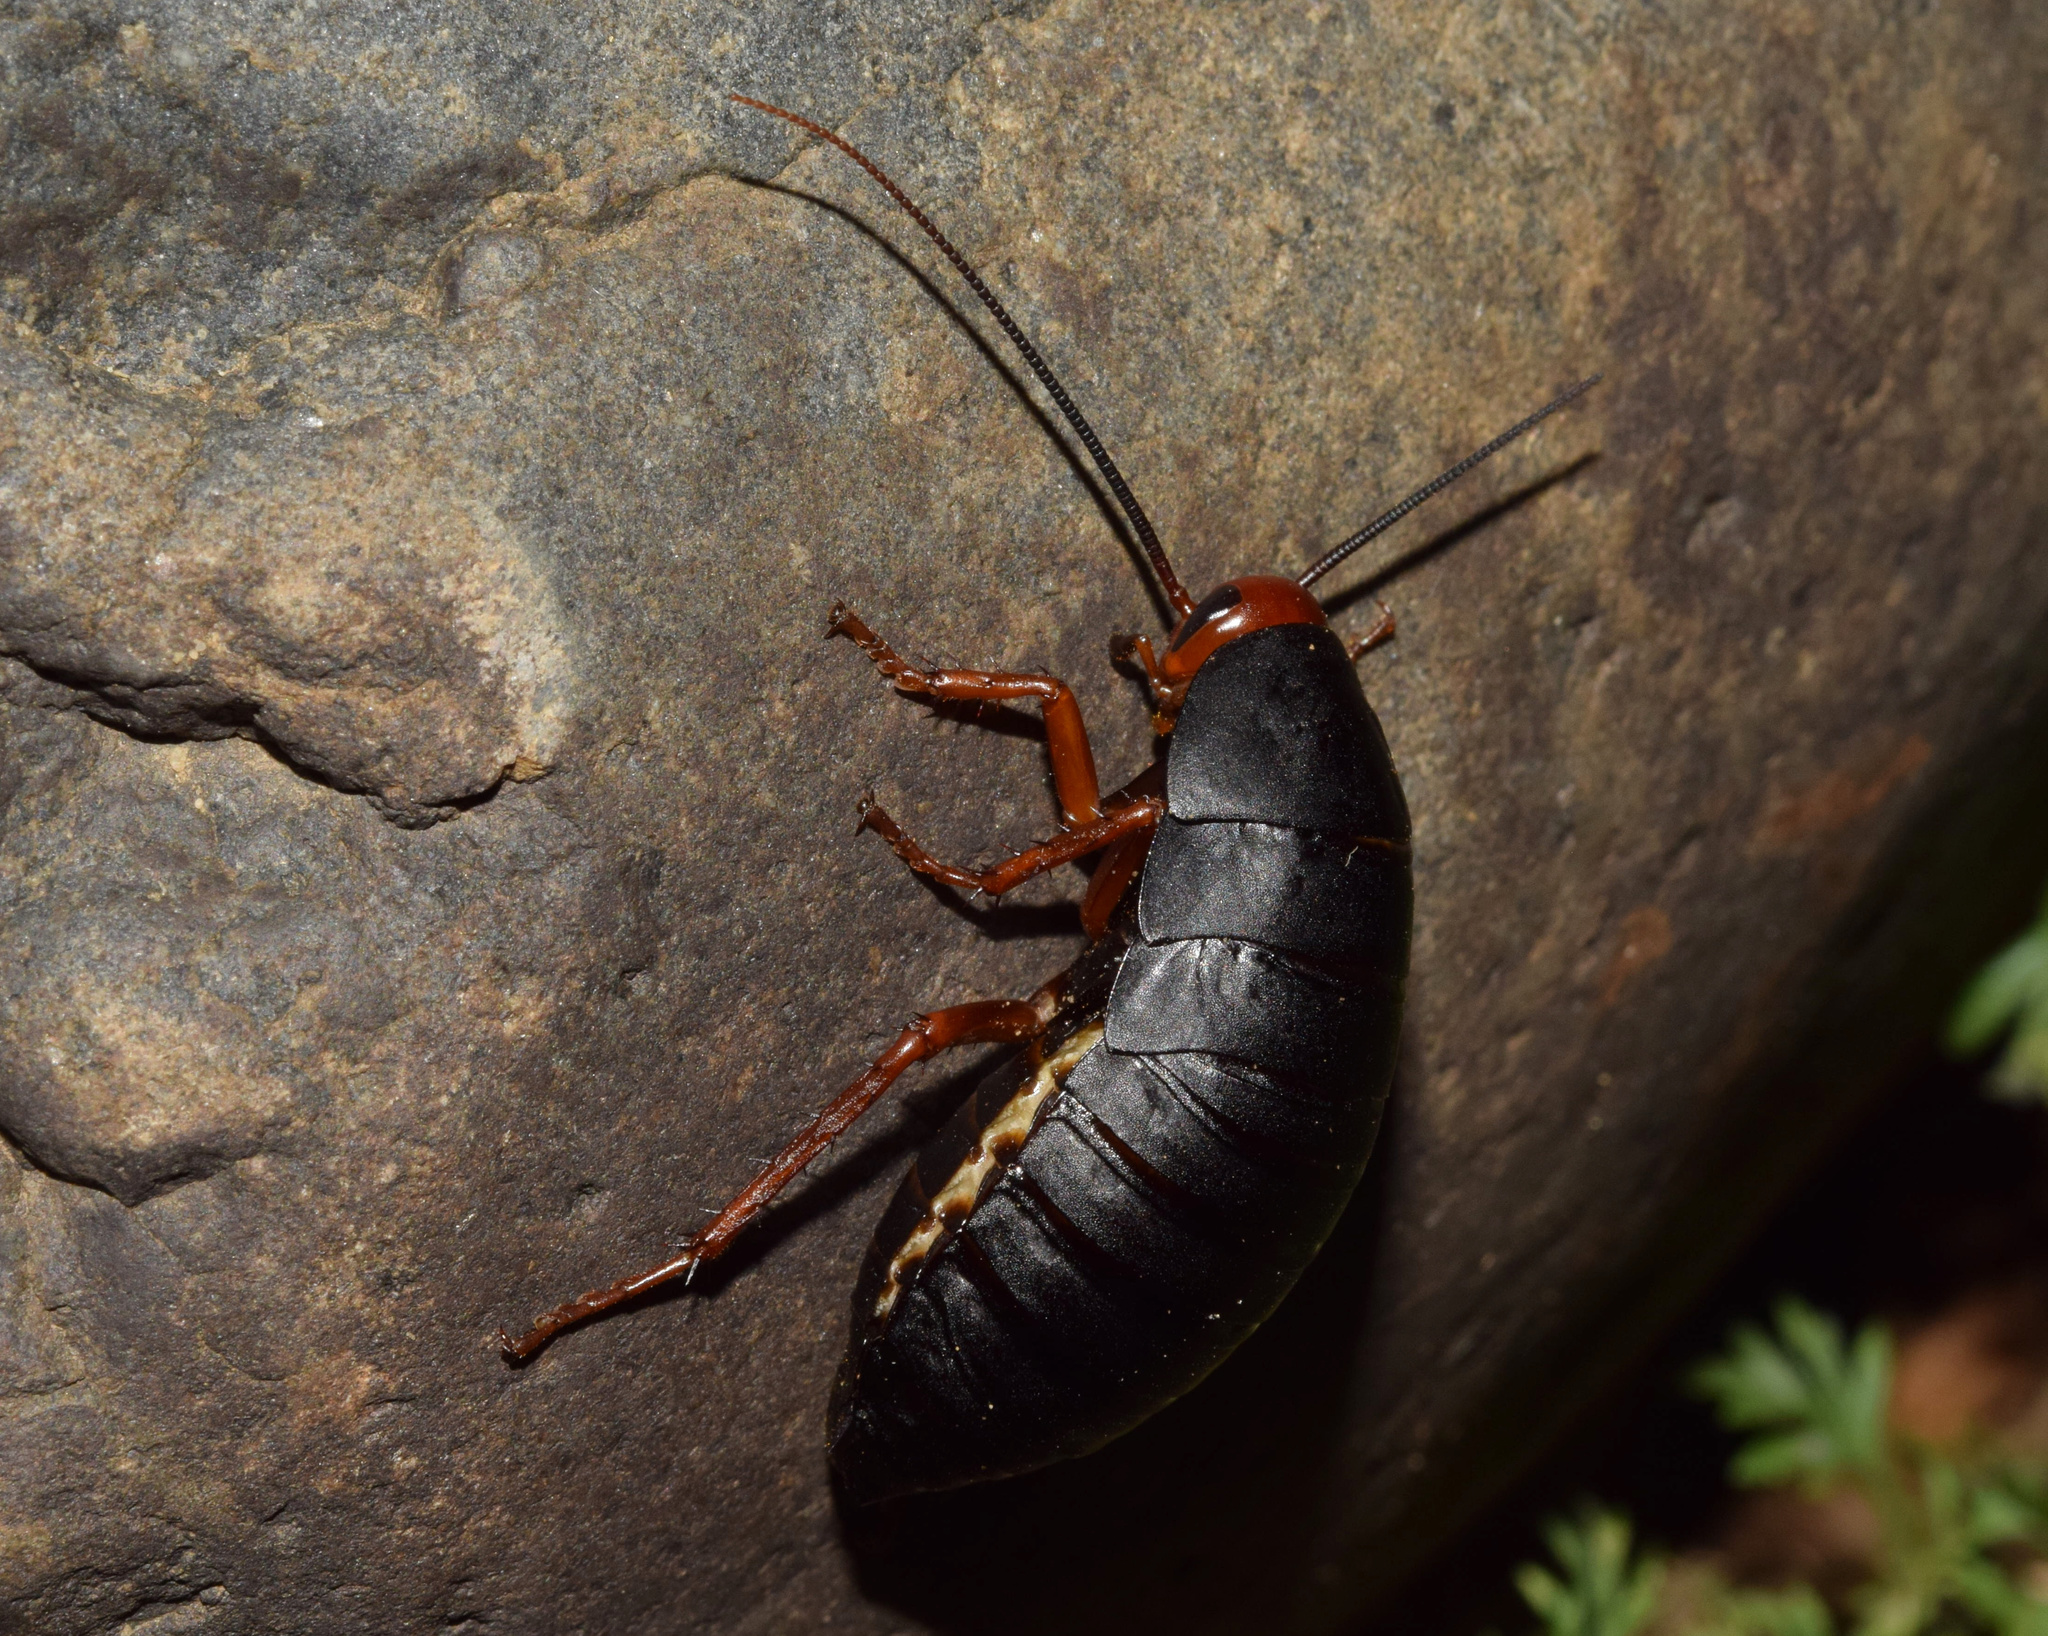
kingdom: Animalia
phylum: Arthropoda
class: Insecta
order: Blattodea
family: Blattidae
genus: Deropeltis
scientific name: Deropeltis erythrocephala
